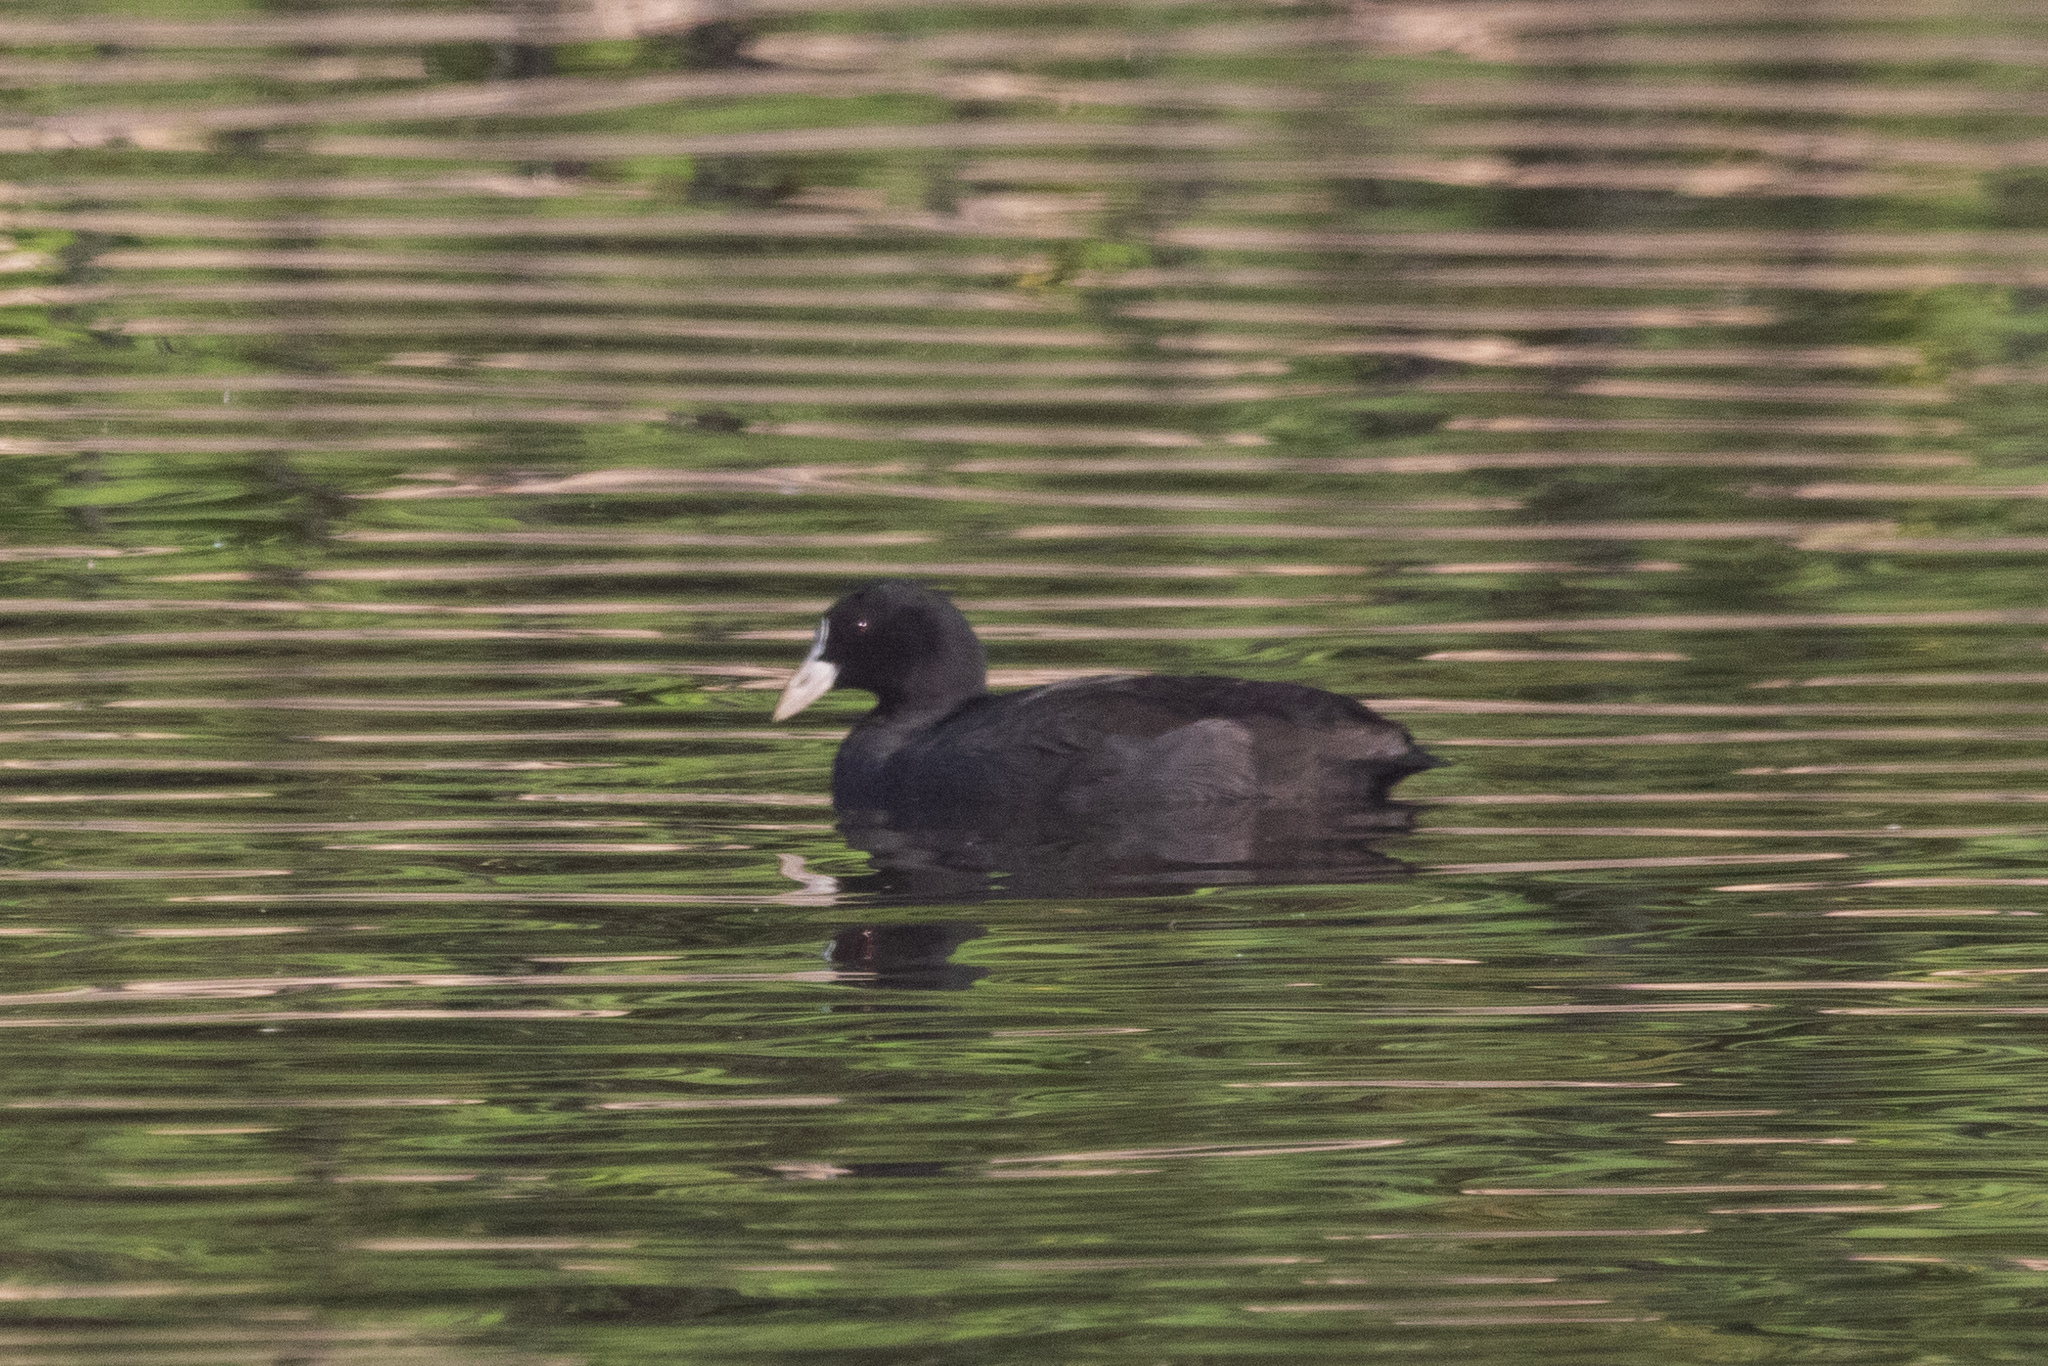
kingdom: Animalia
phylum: Chordata
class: Aves
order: Gruiformes
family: Rallidae
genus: Fulica
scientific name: Fulica atra
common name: Eurasian coot
